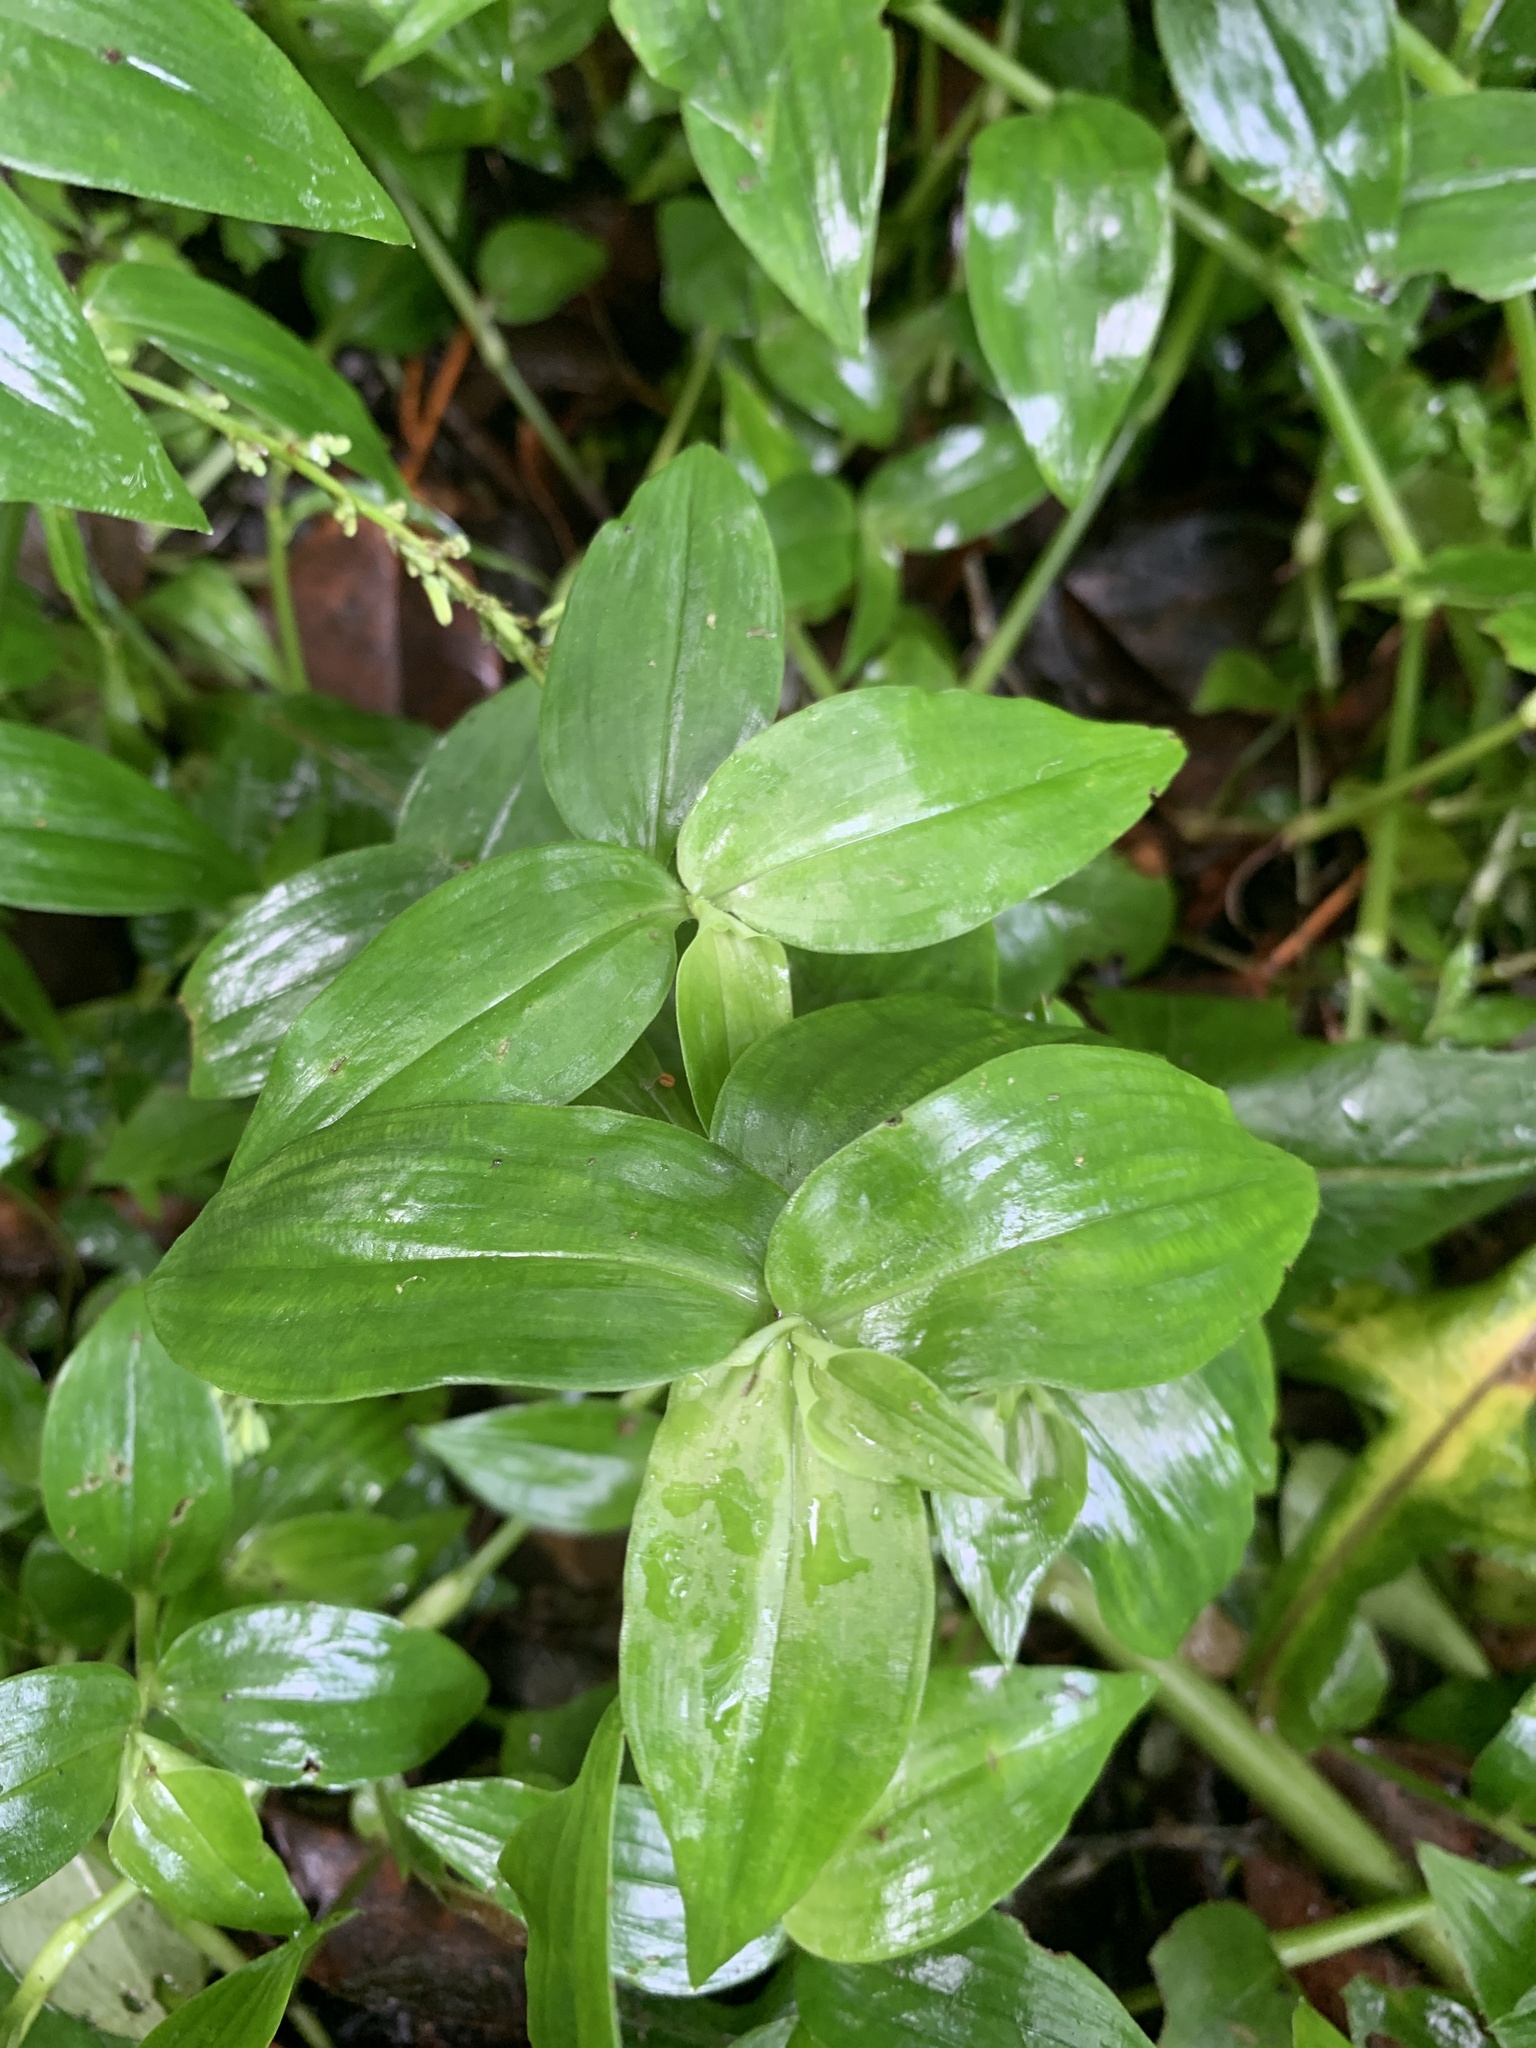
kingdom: Plantae
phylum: Tracheophyta
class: Liliopsida
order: Commelinales
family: Commelinaceae
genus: Tradescantia
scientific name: Tradescantia fluminensis
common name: Wandering-jew
